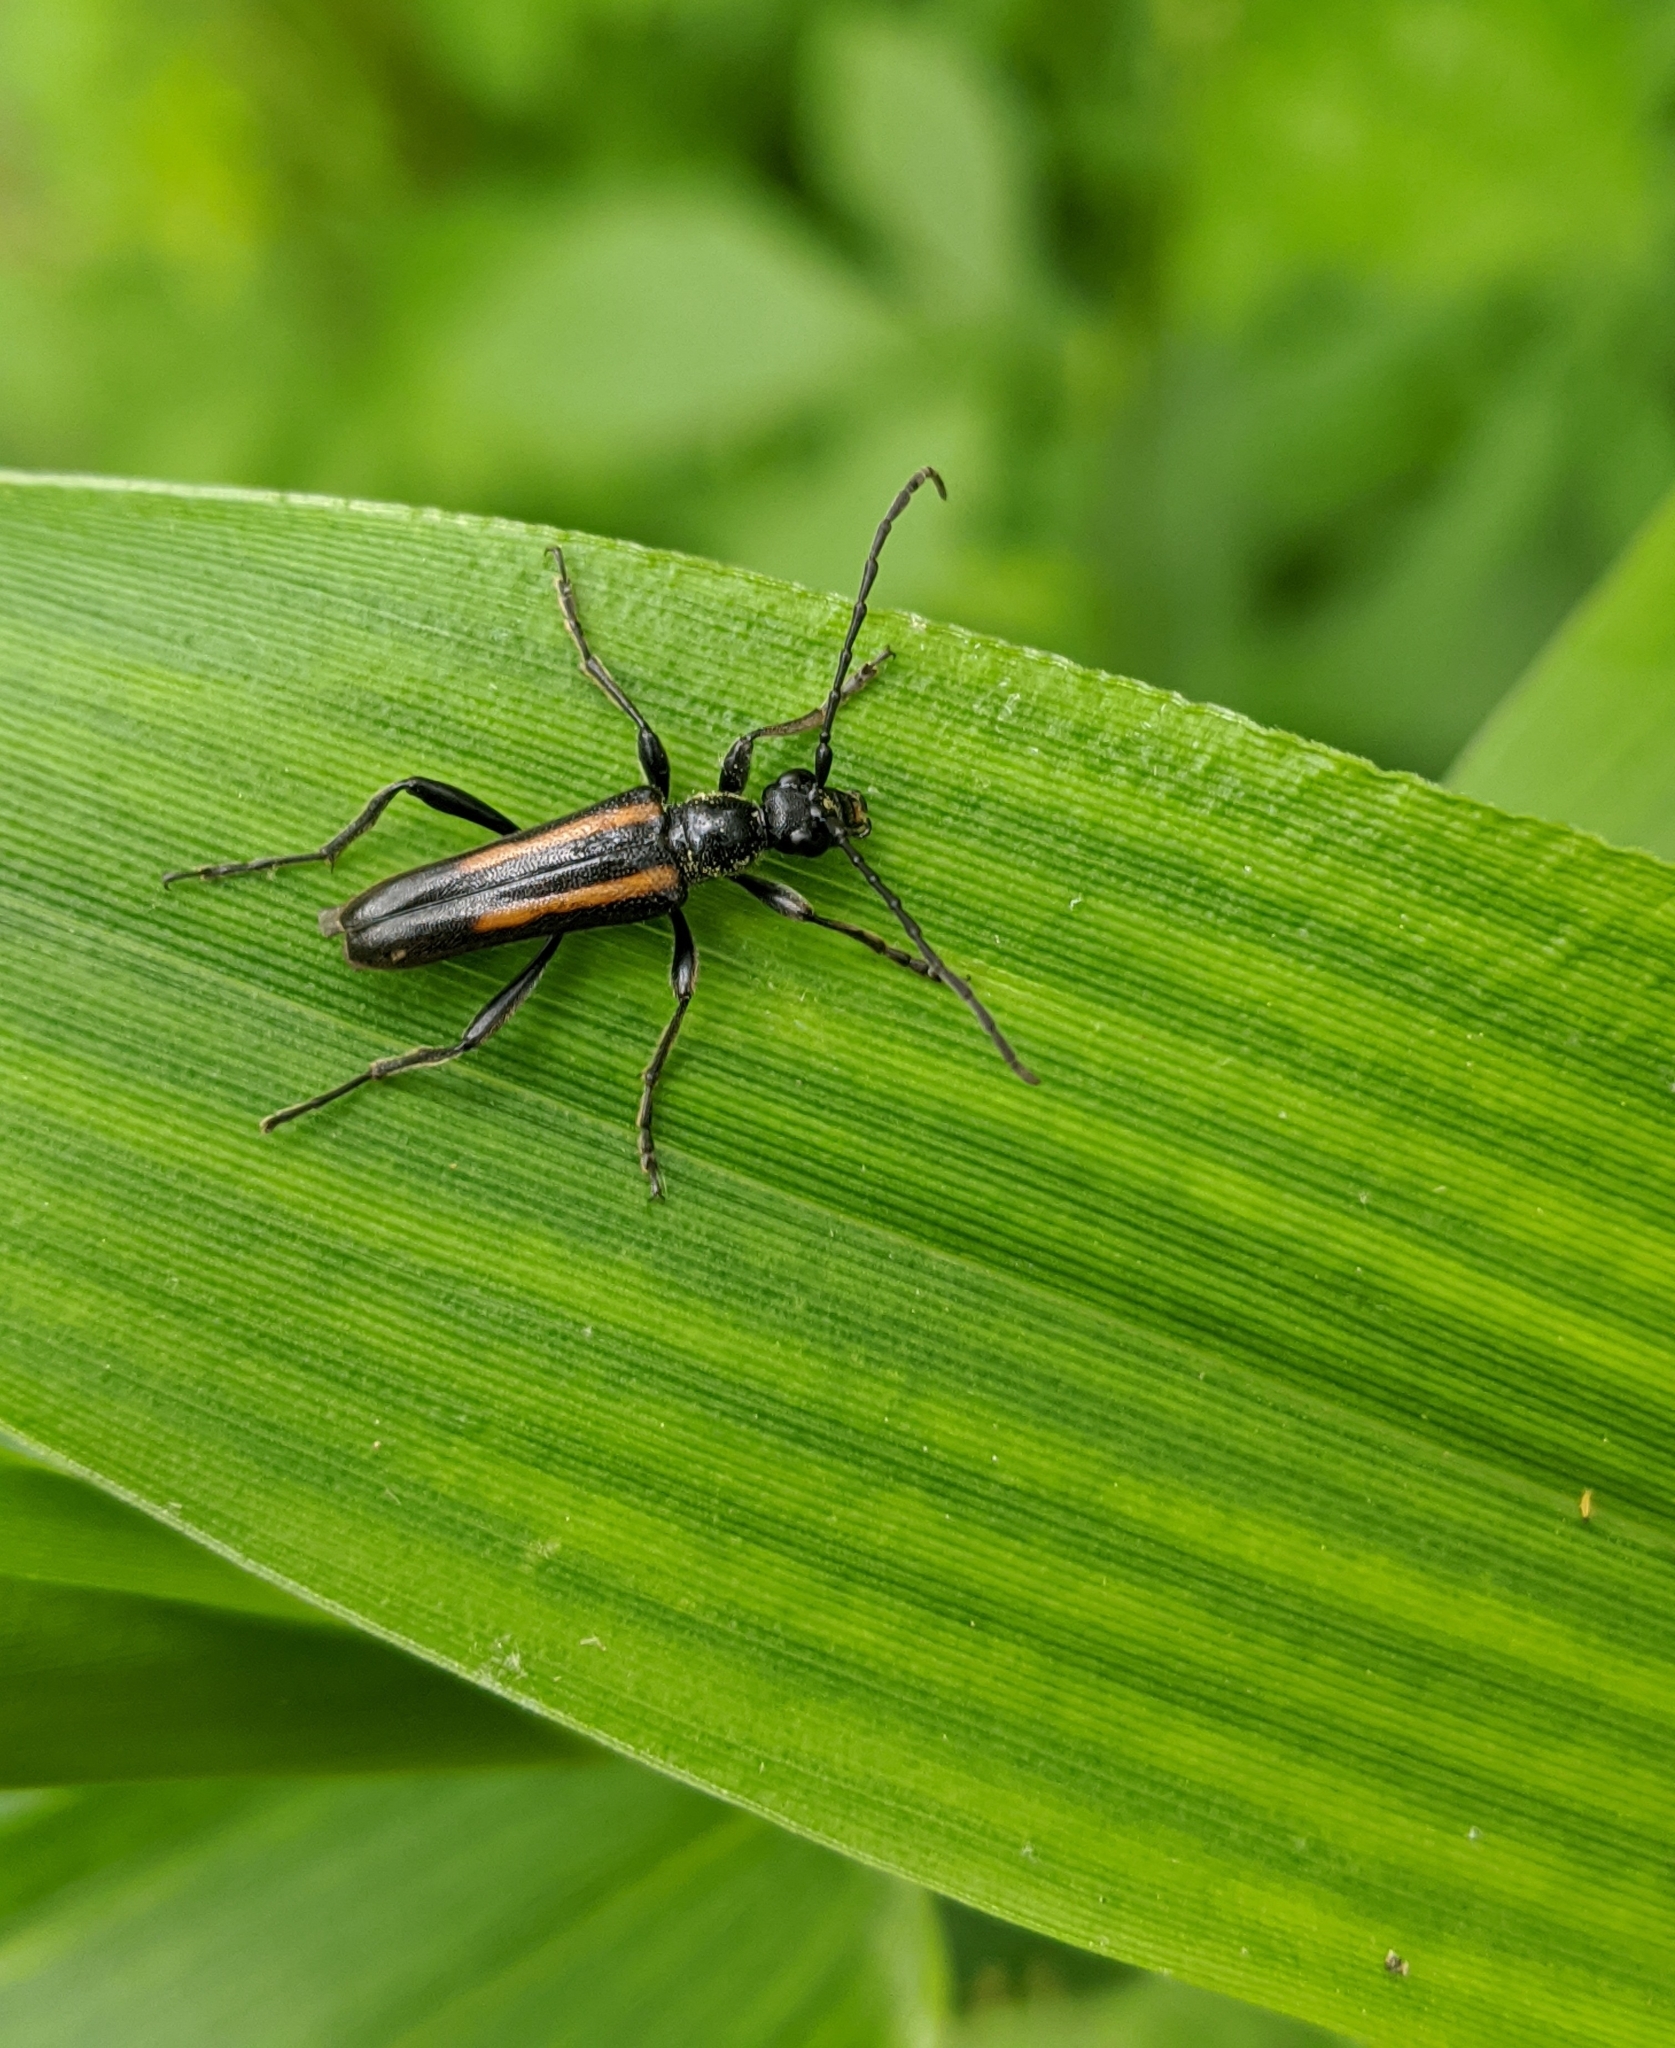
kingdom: Animalia
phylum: Arthropoda
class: Insecta
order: Coleoptera
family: Cerambycidae
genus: Strangalepta
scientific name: Strangalepta abbreviata
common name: Strangalepta flower longhorn beetle
